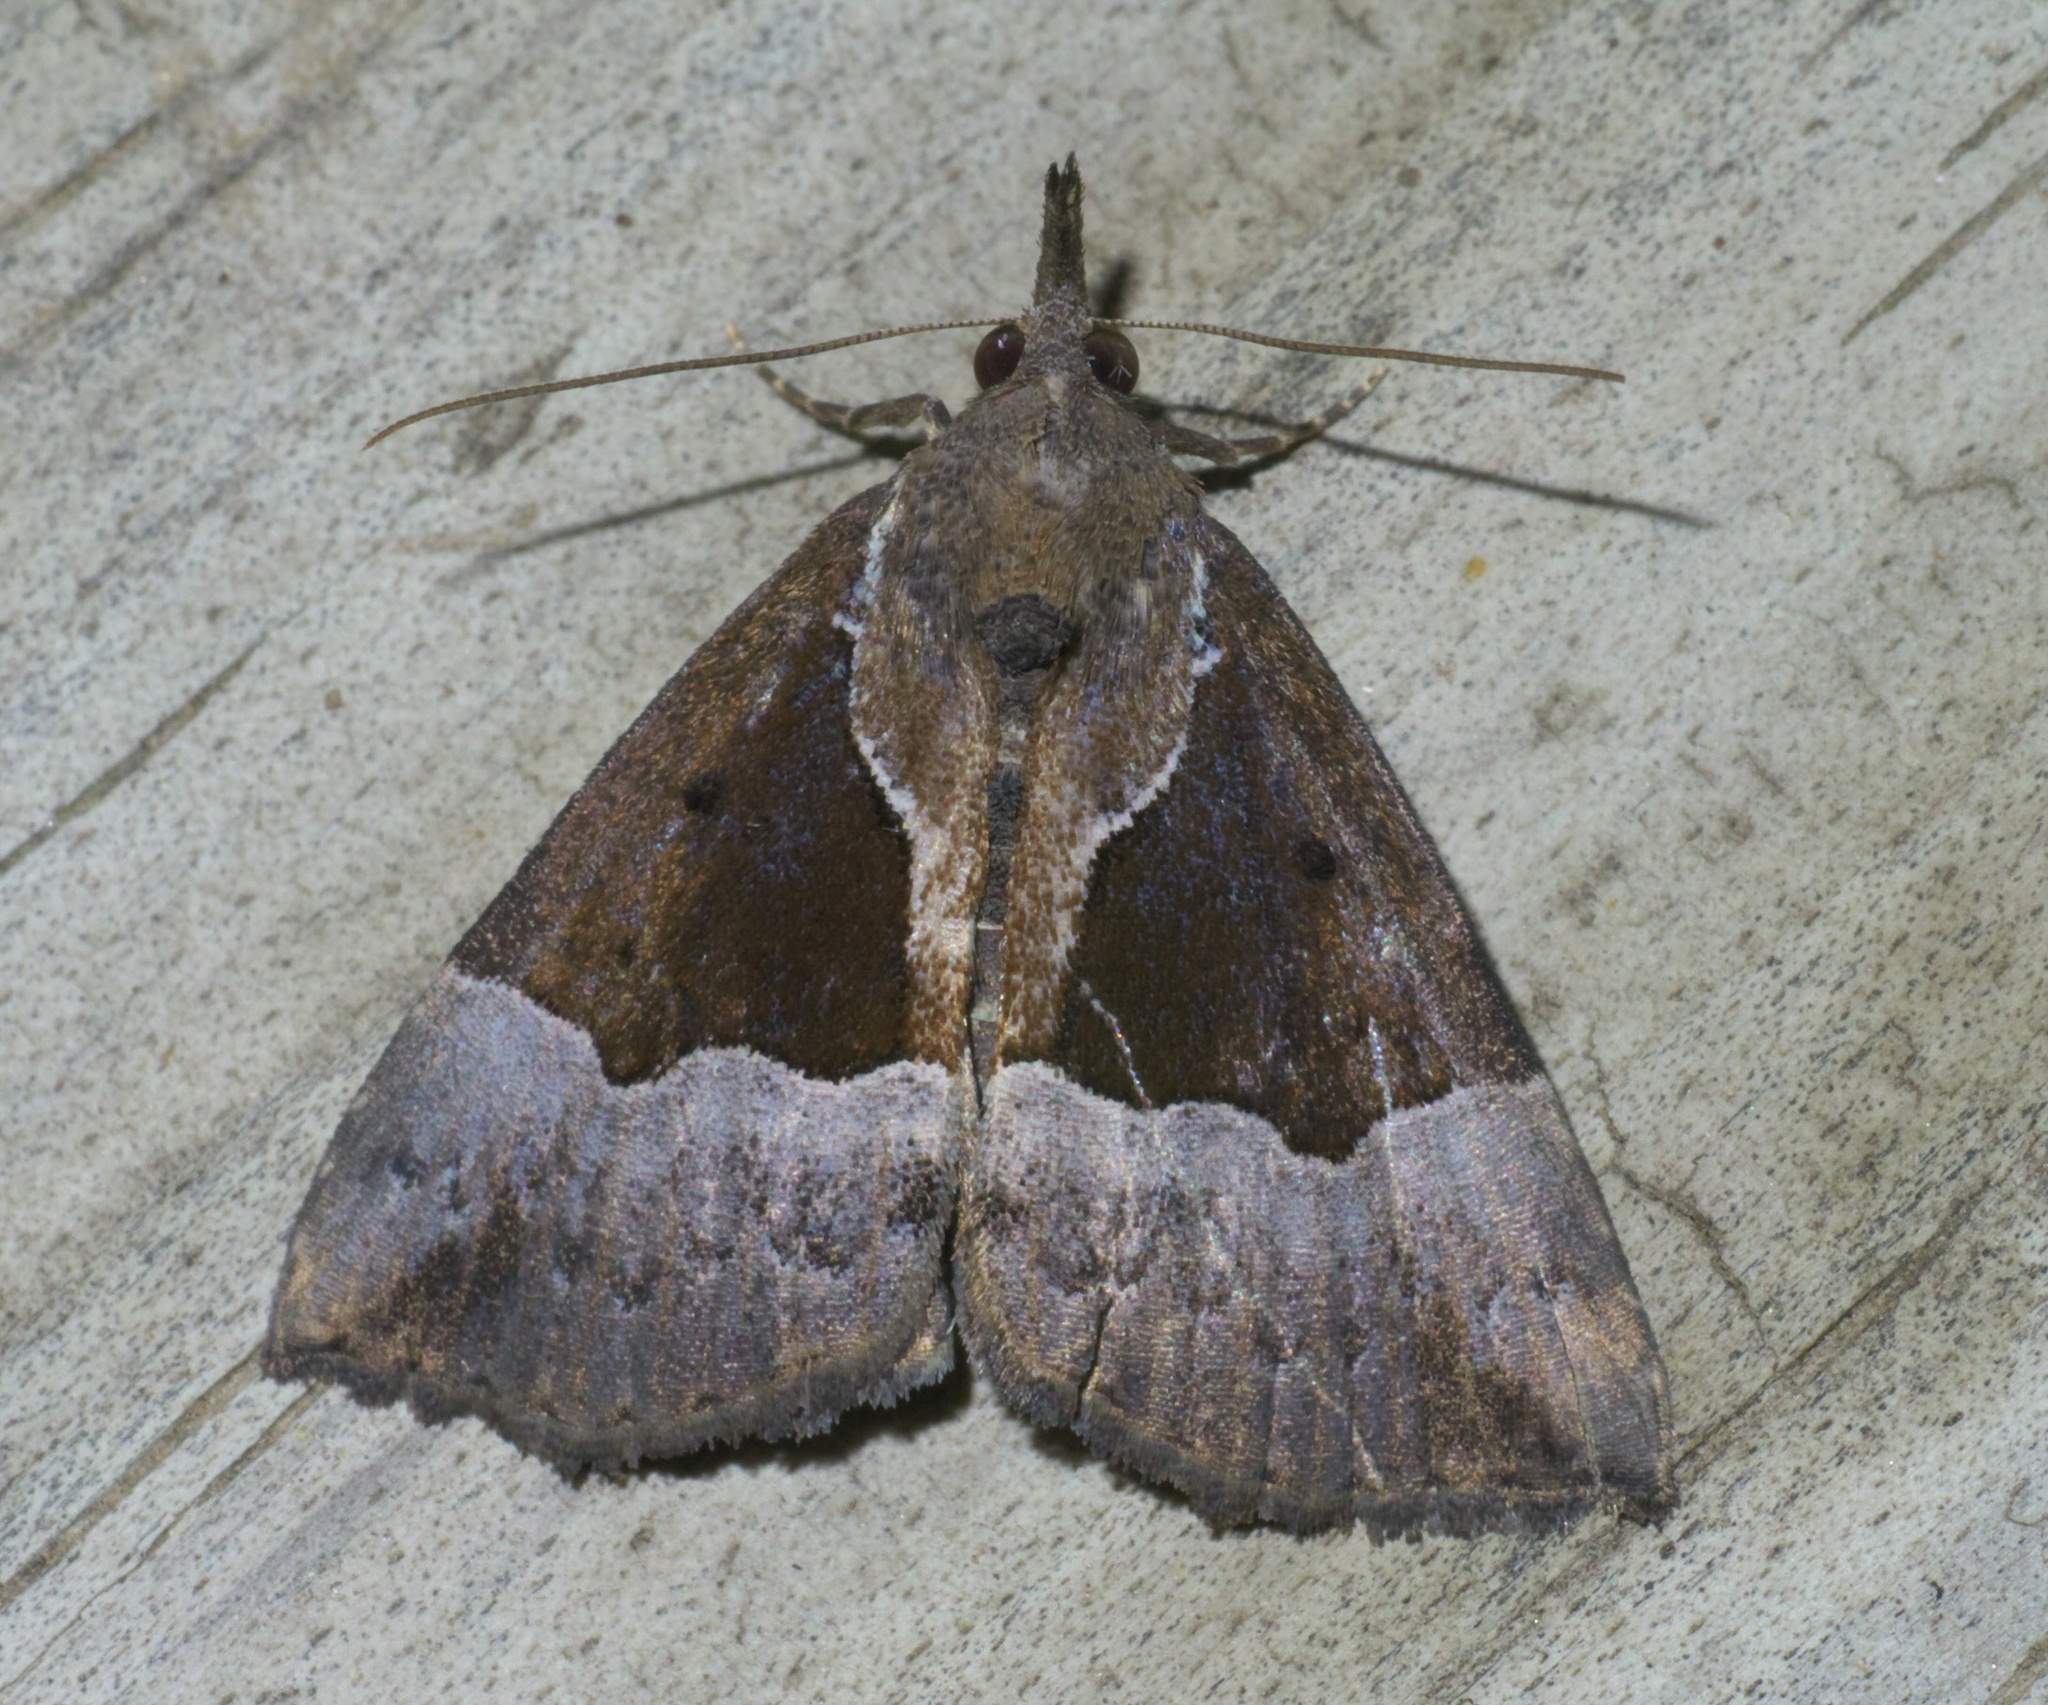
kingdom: Animalia
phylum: Arthropoda
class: Insecta
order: Lepidoptera
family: Erebidae
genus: Hypena
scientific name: Hypena bijugalis
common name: Dimorphic bomolocha moth
